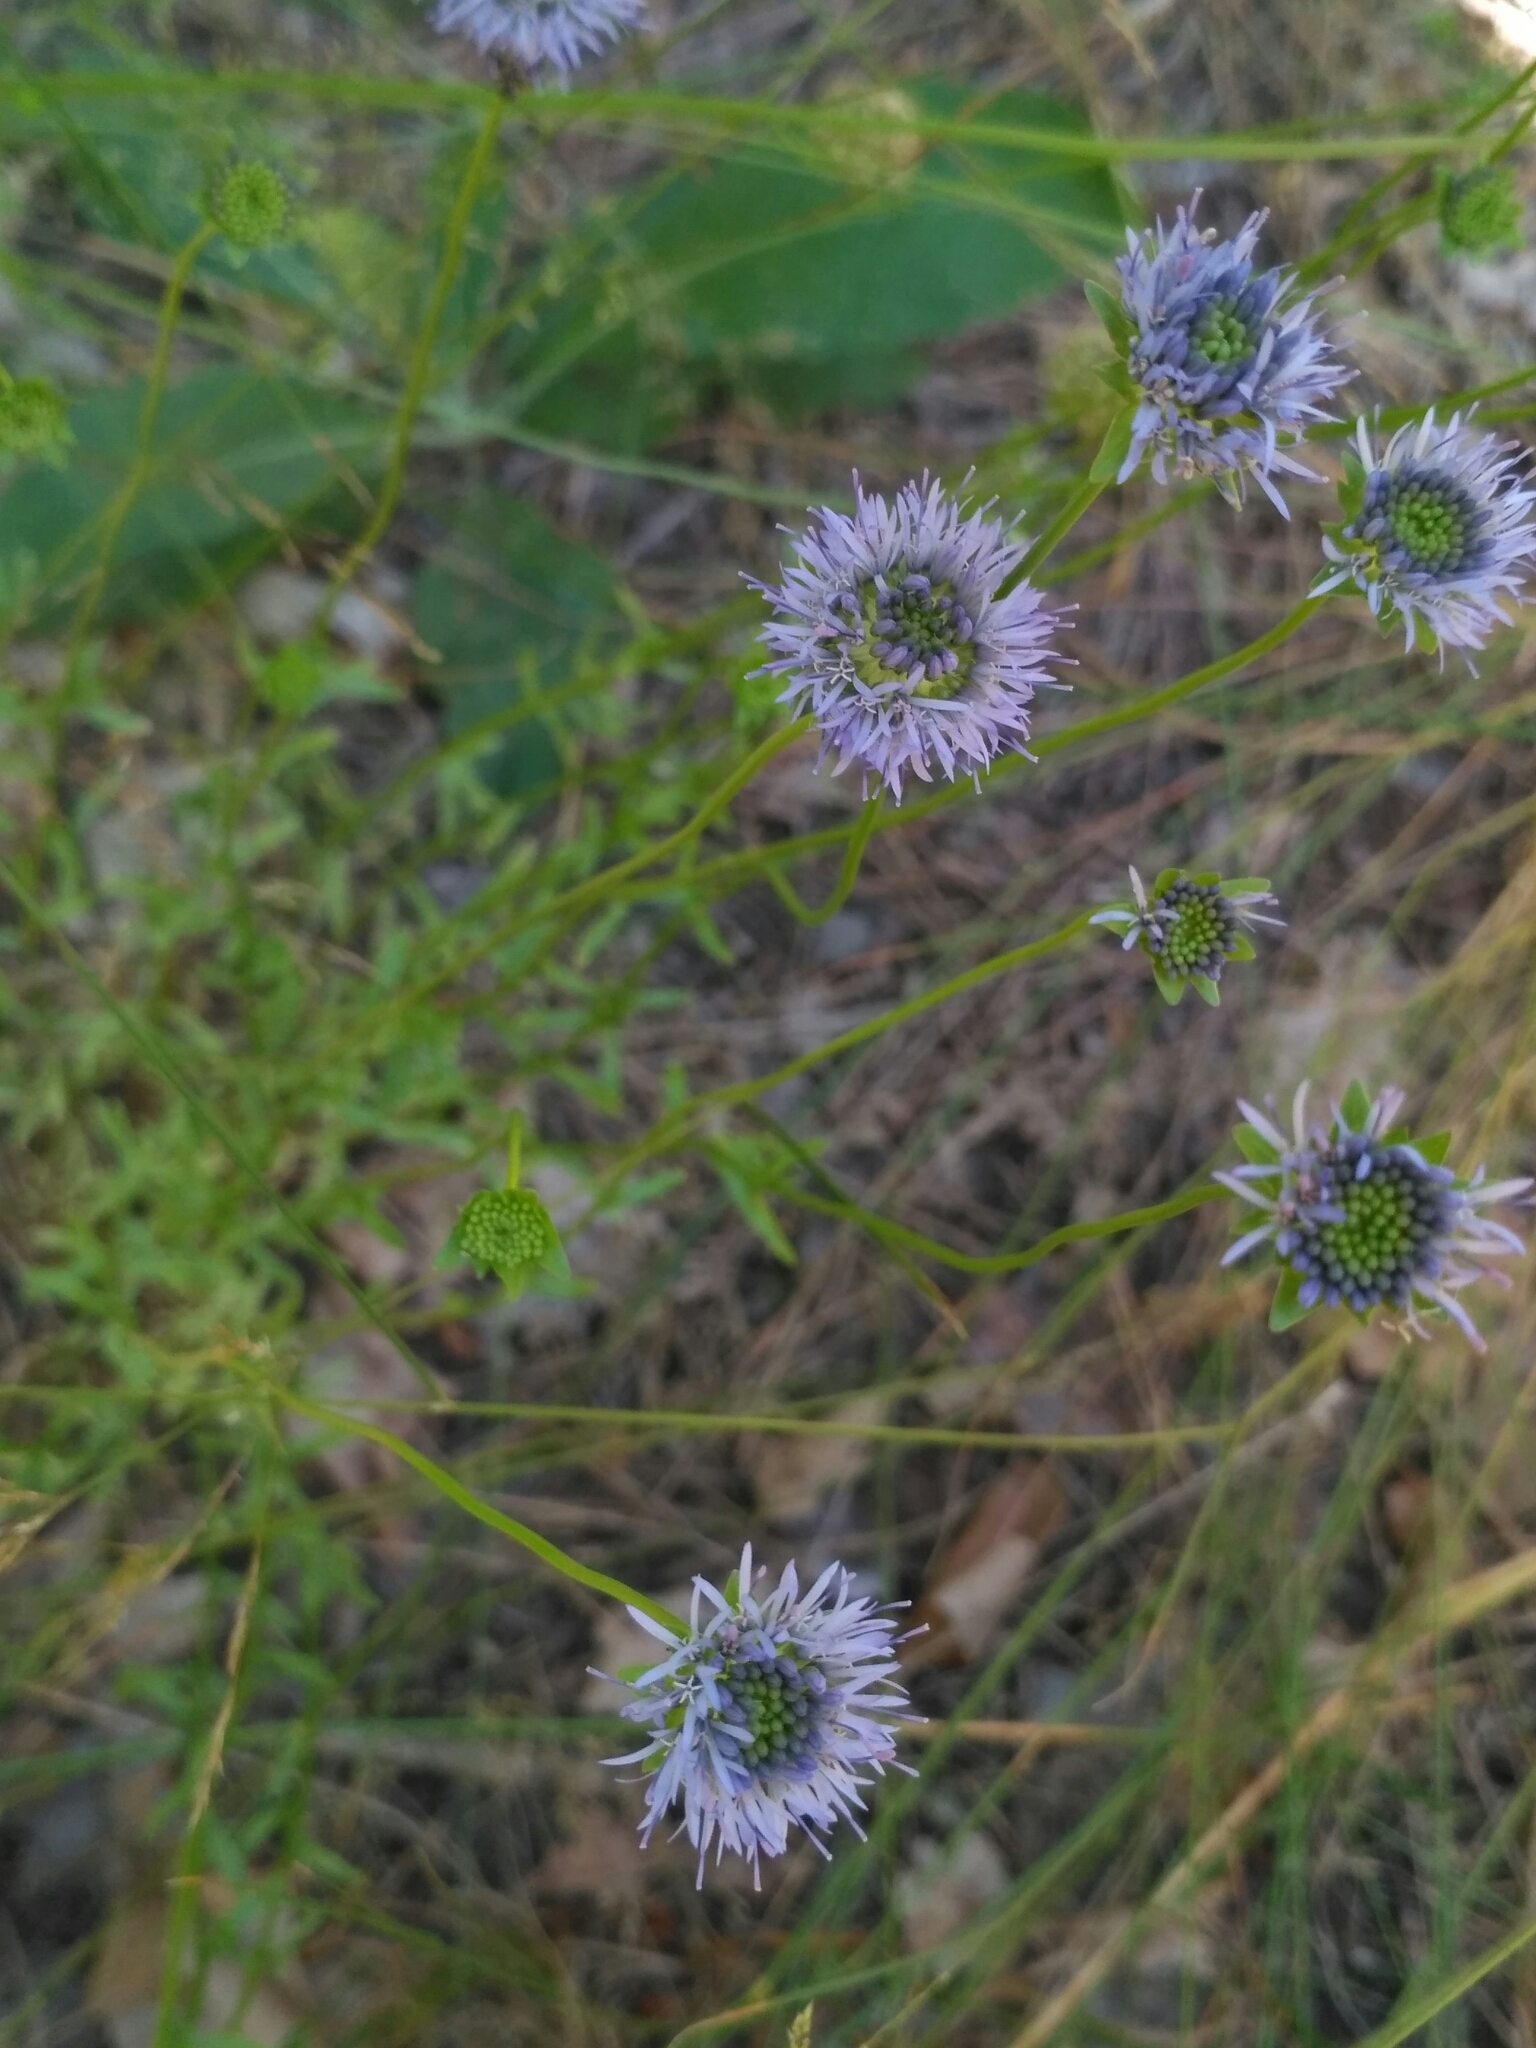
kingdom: Plantae
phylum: Tracheophyta
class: Magnoliopsida
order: Asterales
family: Campanulaceae
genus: Jasione
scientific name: Jasione montana
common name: Sheep's-bit
